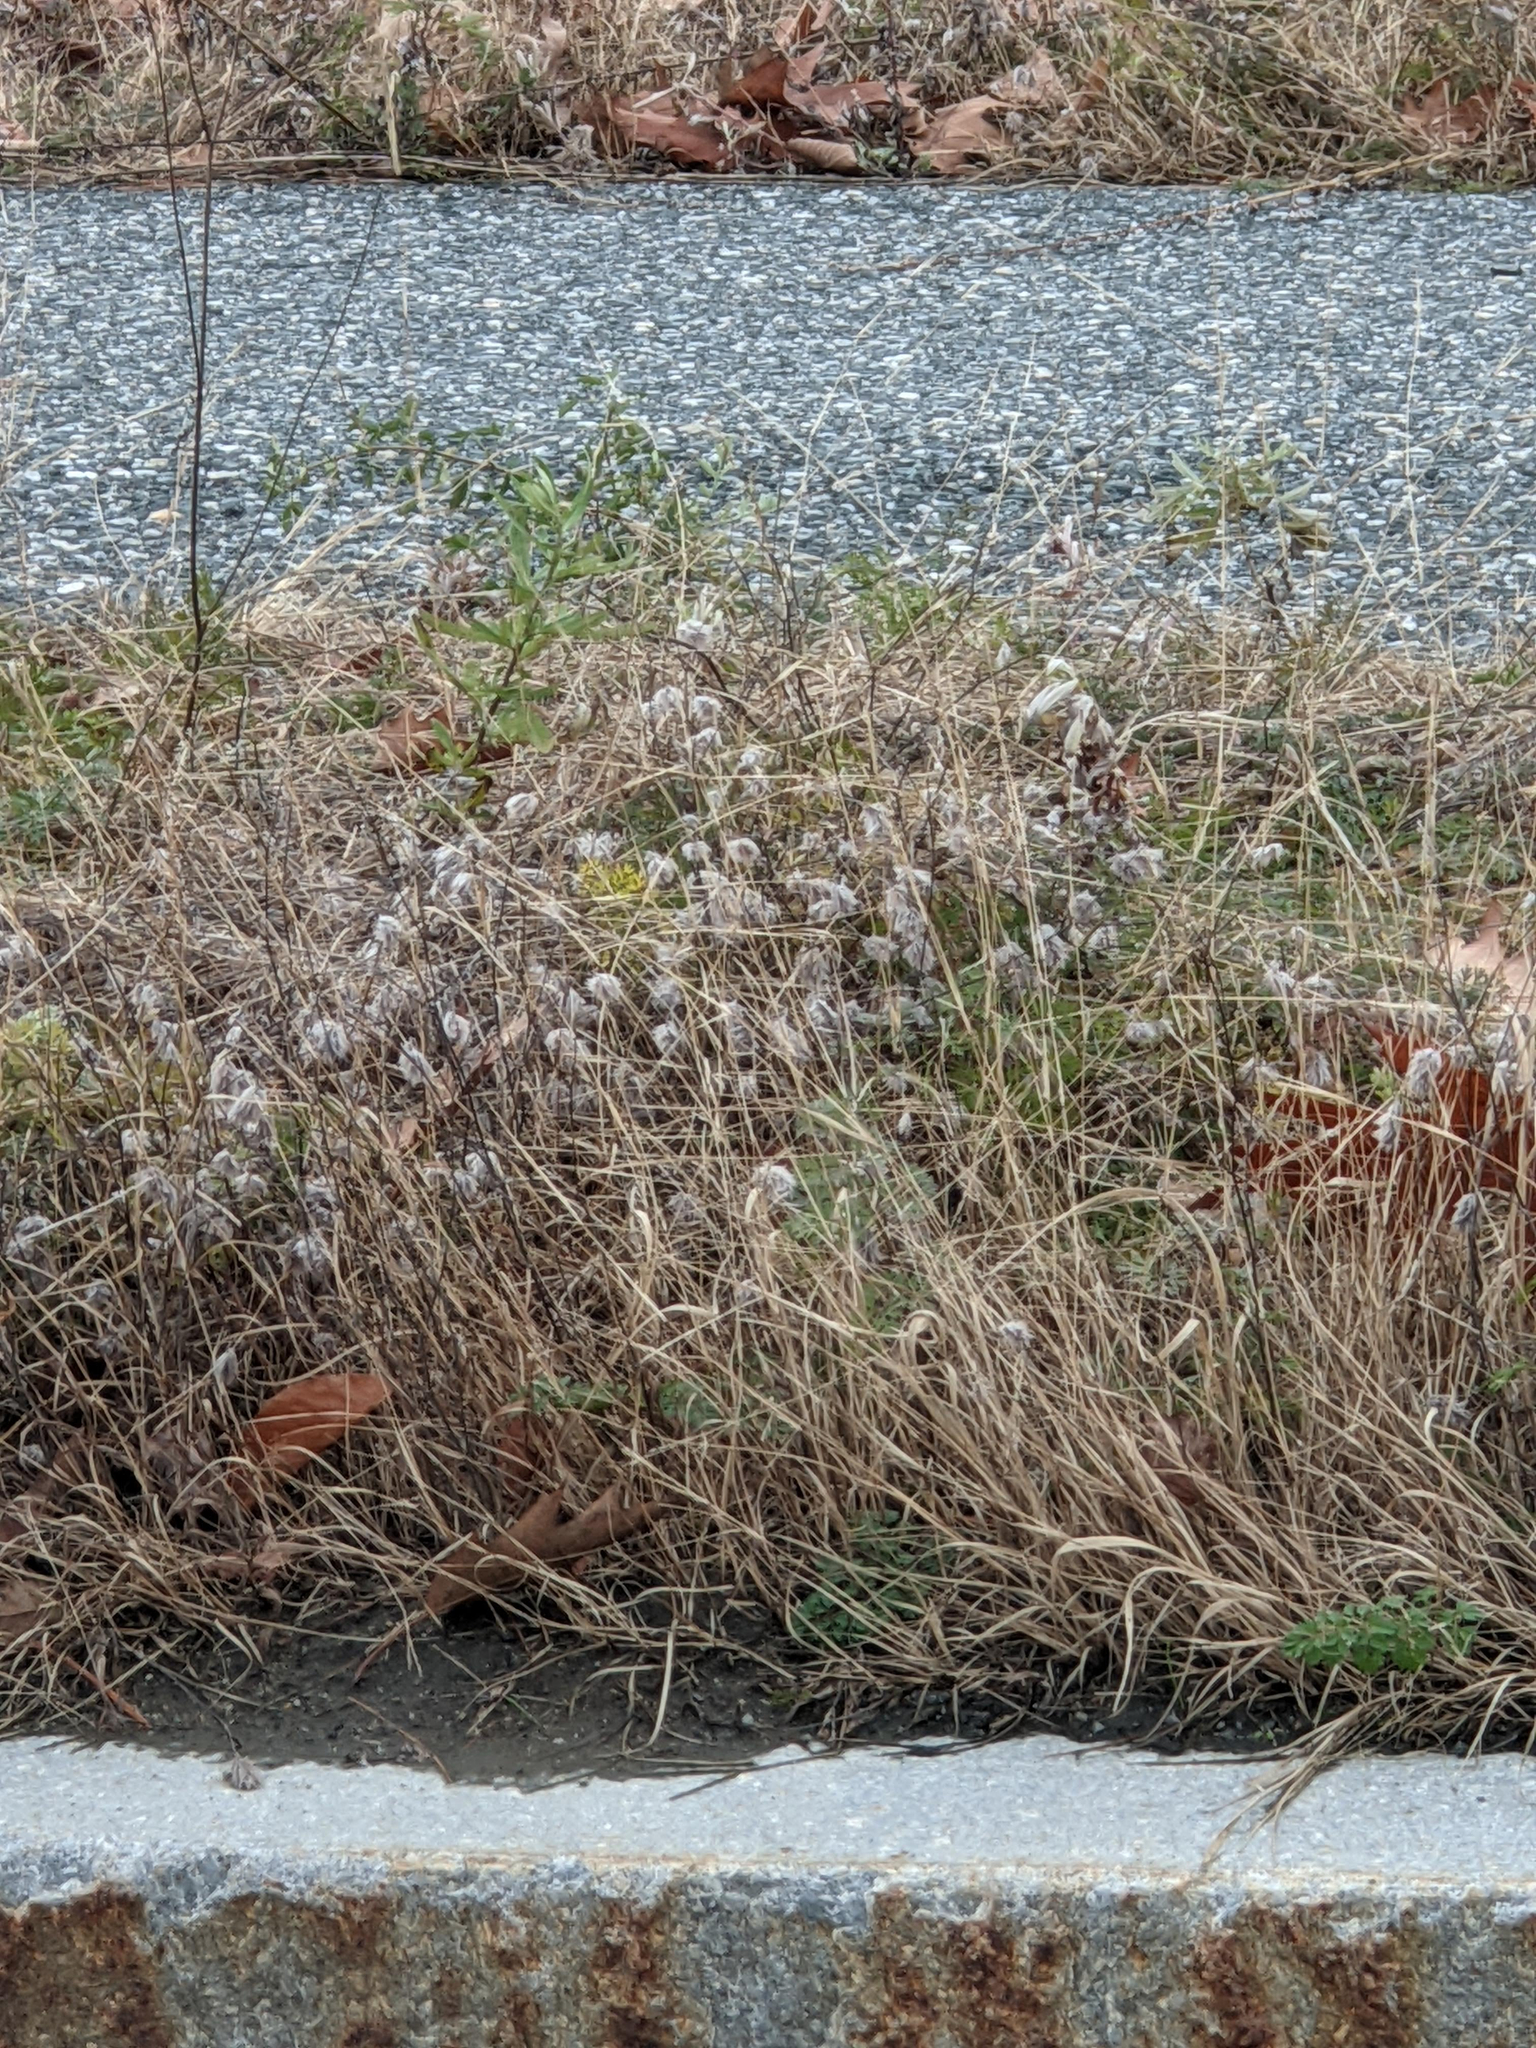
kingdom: Plantae
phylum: Tracheophyta
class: Magnoliopsida
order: Fabales
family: Fabaceae
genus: Trifolium
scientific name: Trifolium arvense
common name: Hare's-foot clover
